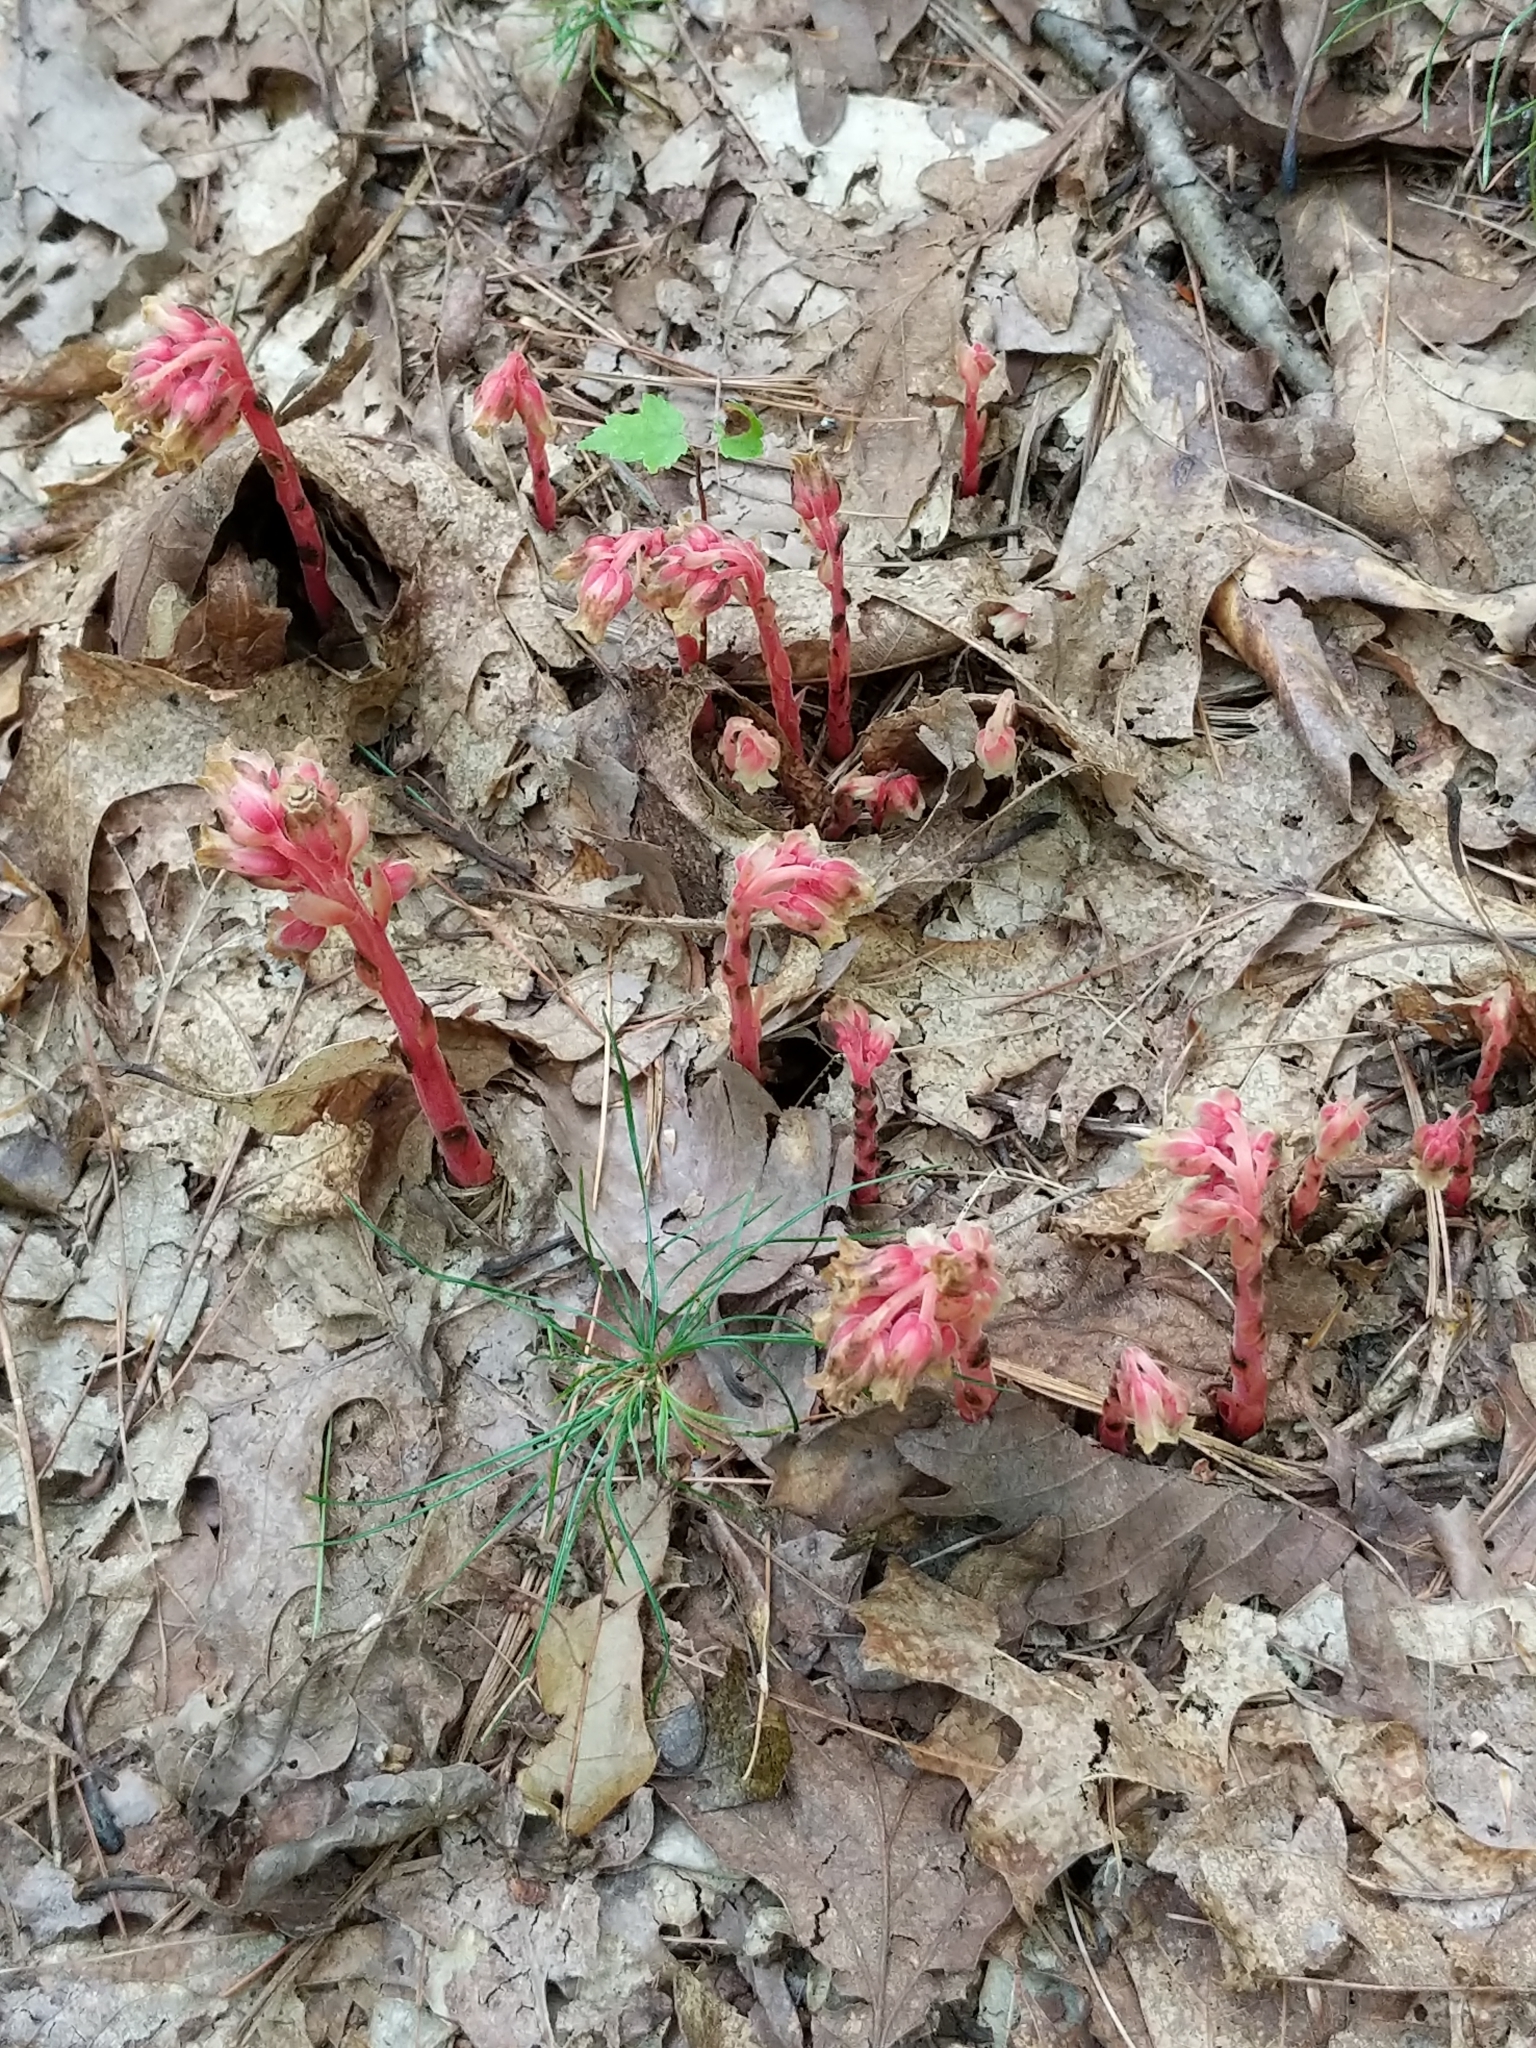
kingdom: Plantae
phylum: Tracheophyta
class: Magnoliopsida
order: Ericales
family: Ericaceae
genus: Hypopitys
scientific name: Hypopitys monotropa
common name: Yellow bird's-nest
